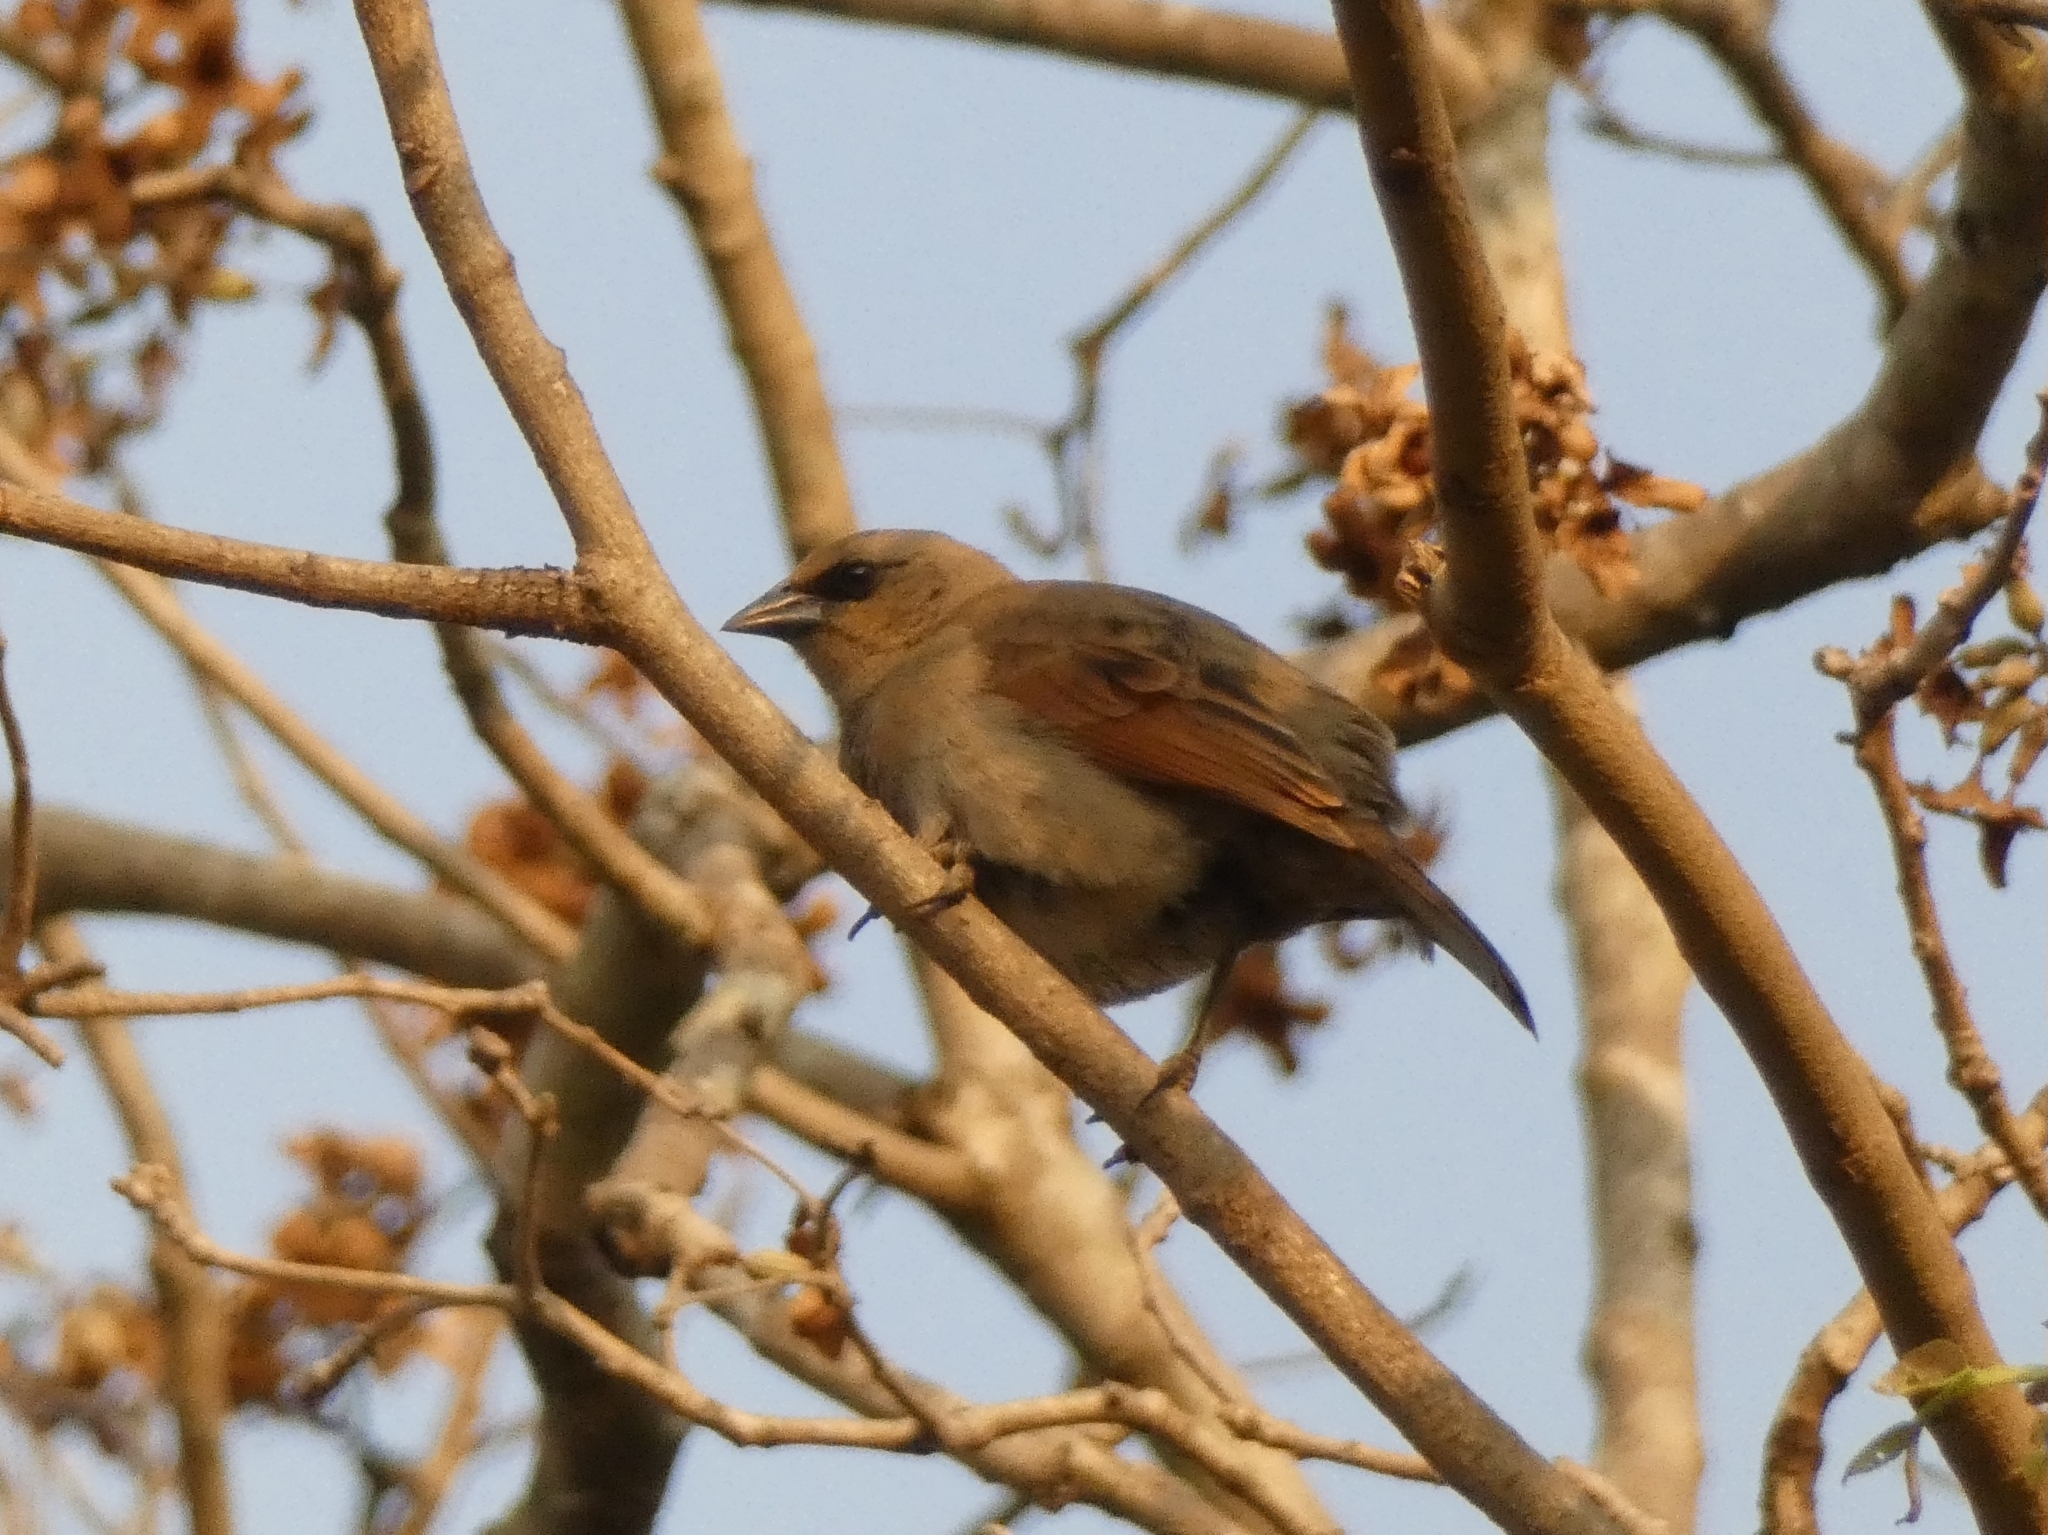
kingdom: Animalia
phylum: Chordata
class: Aves
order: Passeriformes
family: Icteridae
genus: Agelaioides
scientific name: Agelaioides badius
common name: Baywing
